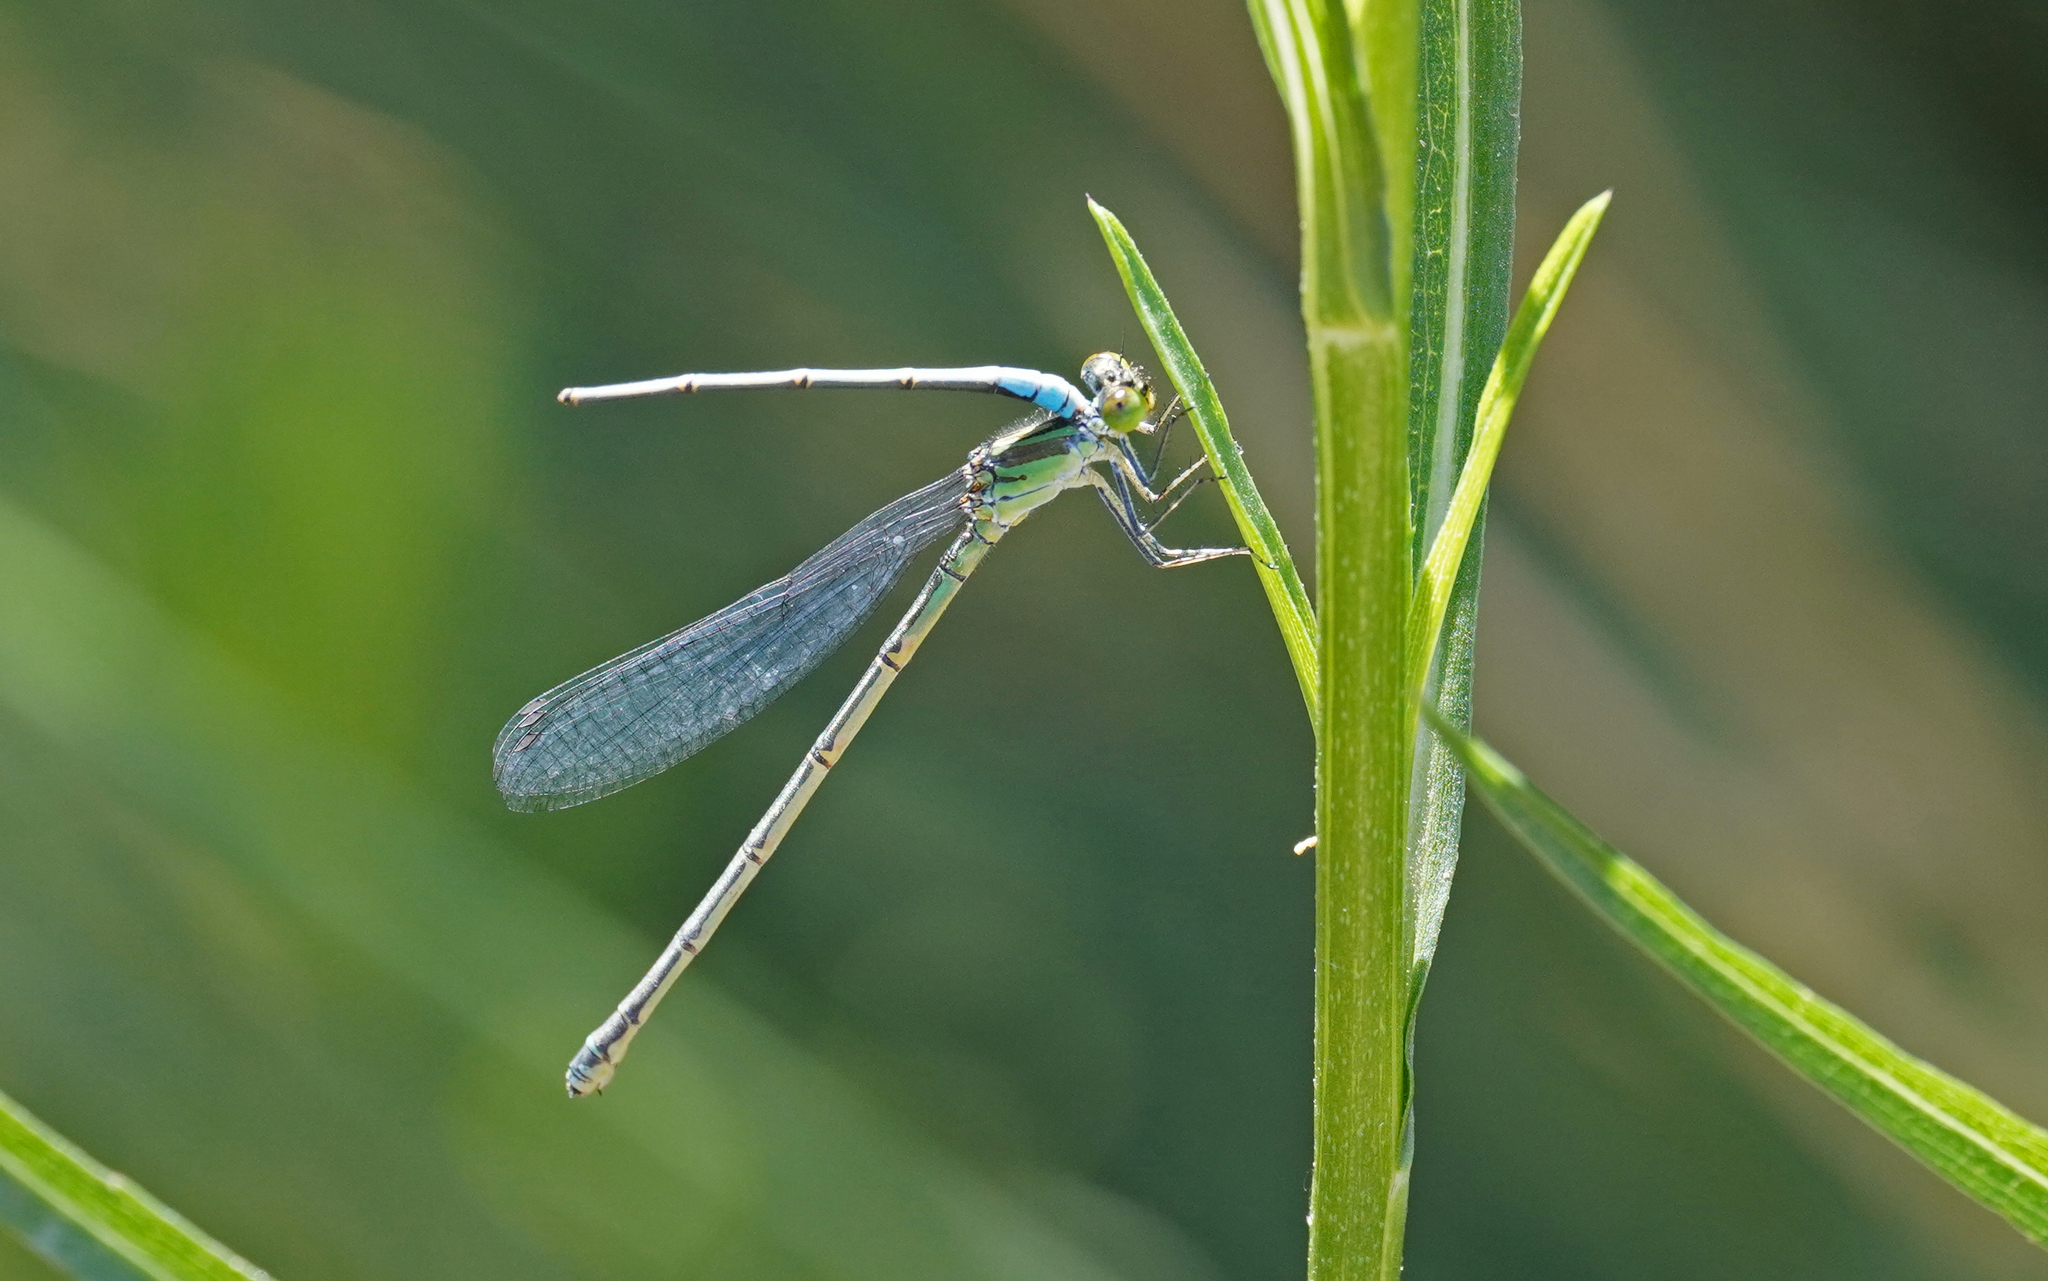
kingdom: Animalia
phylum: Arthropoda
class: Insecta
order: Odonata
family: Coenagrionidae
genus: Erythromma
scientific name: Erythromma viridulum
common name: Small red-eyed damselfly
